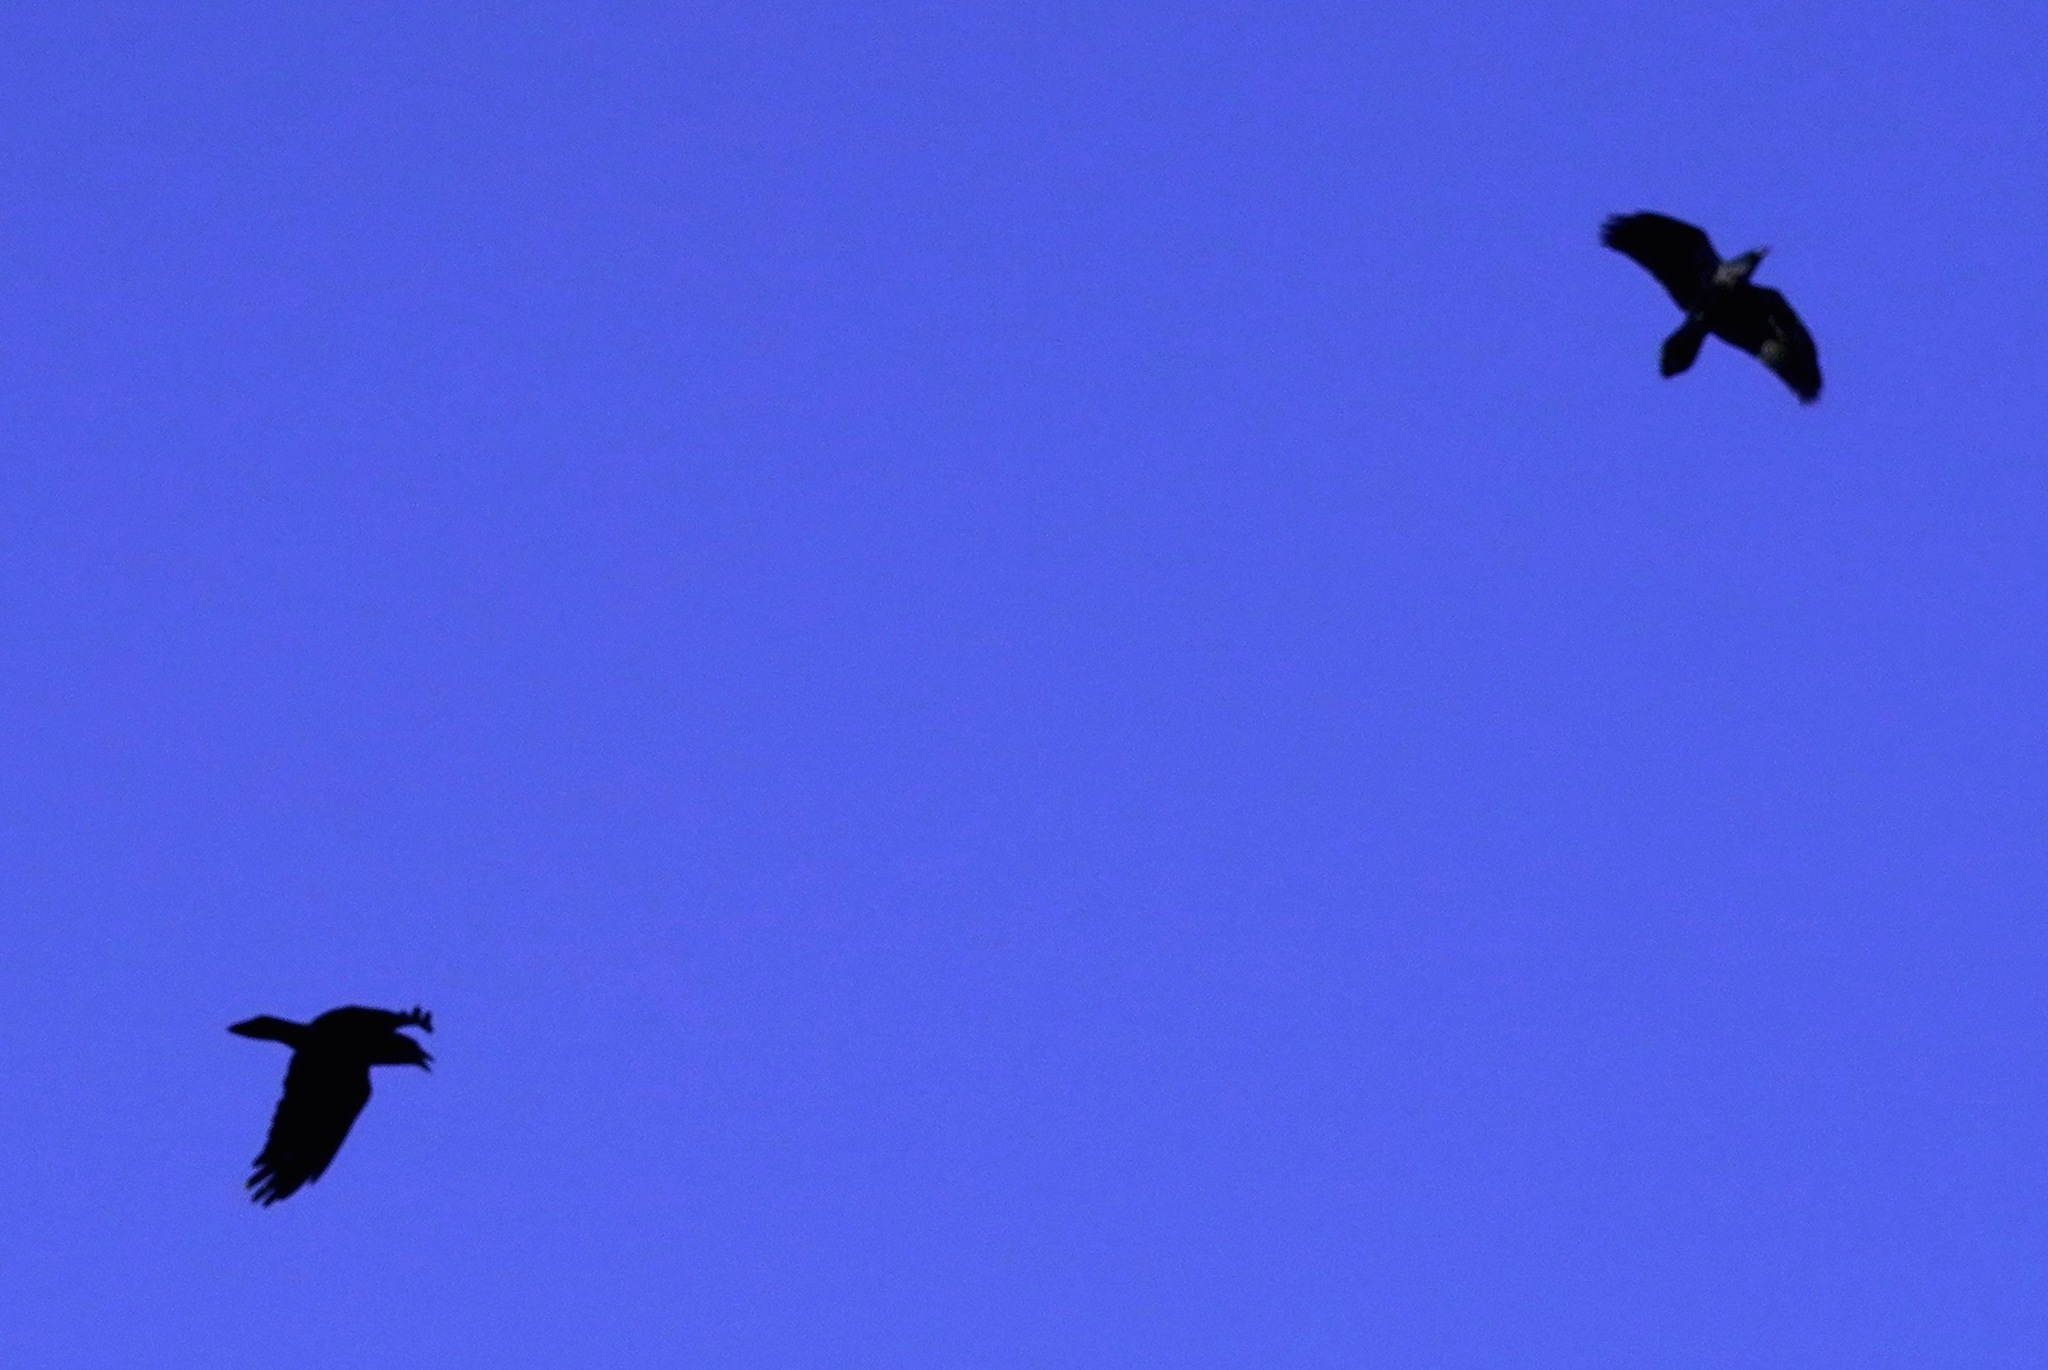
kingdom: Animalia
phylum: Chordata
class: Aves
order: Passeriformes
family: Corvidae
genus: Corvus
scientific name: Corvus corax
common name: Common raven
